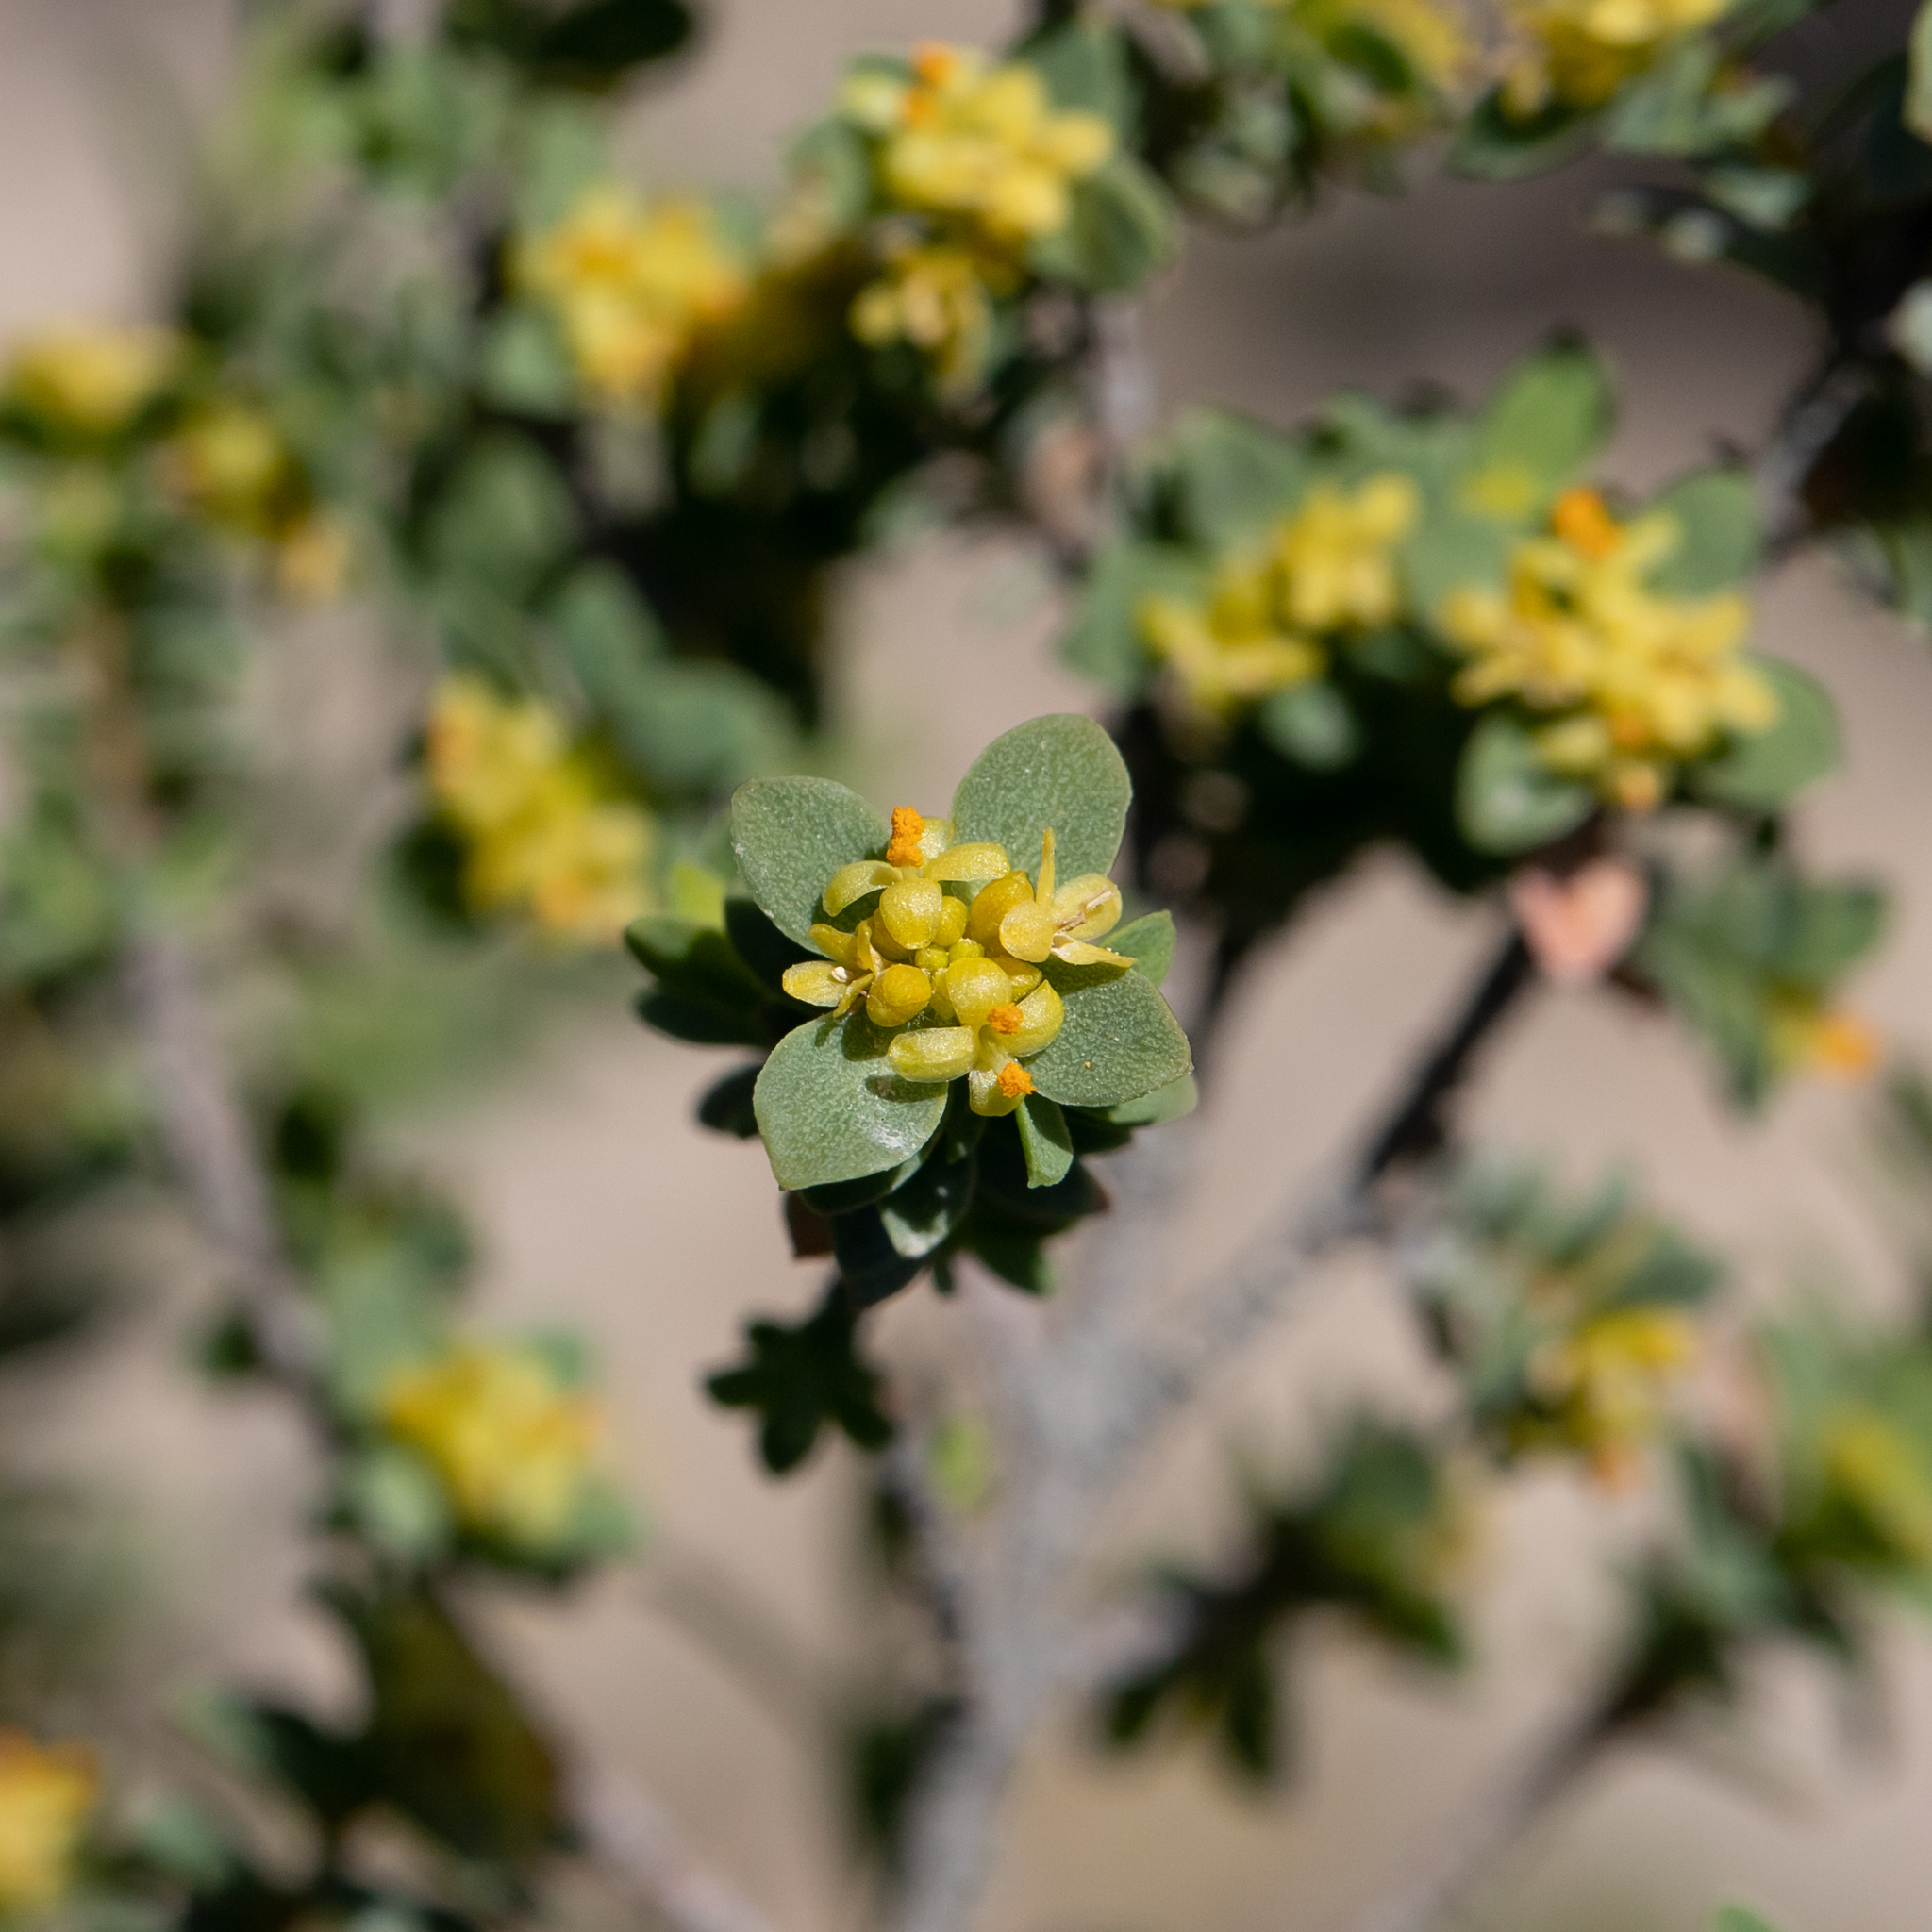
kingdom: Plantae
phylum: Tracheophyta
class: Magnoliopsida
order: Malvales
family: Thymelaeaceae
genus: Pimelea
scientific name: Pimelea serpyllifolia
